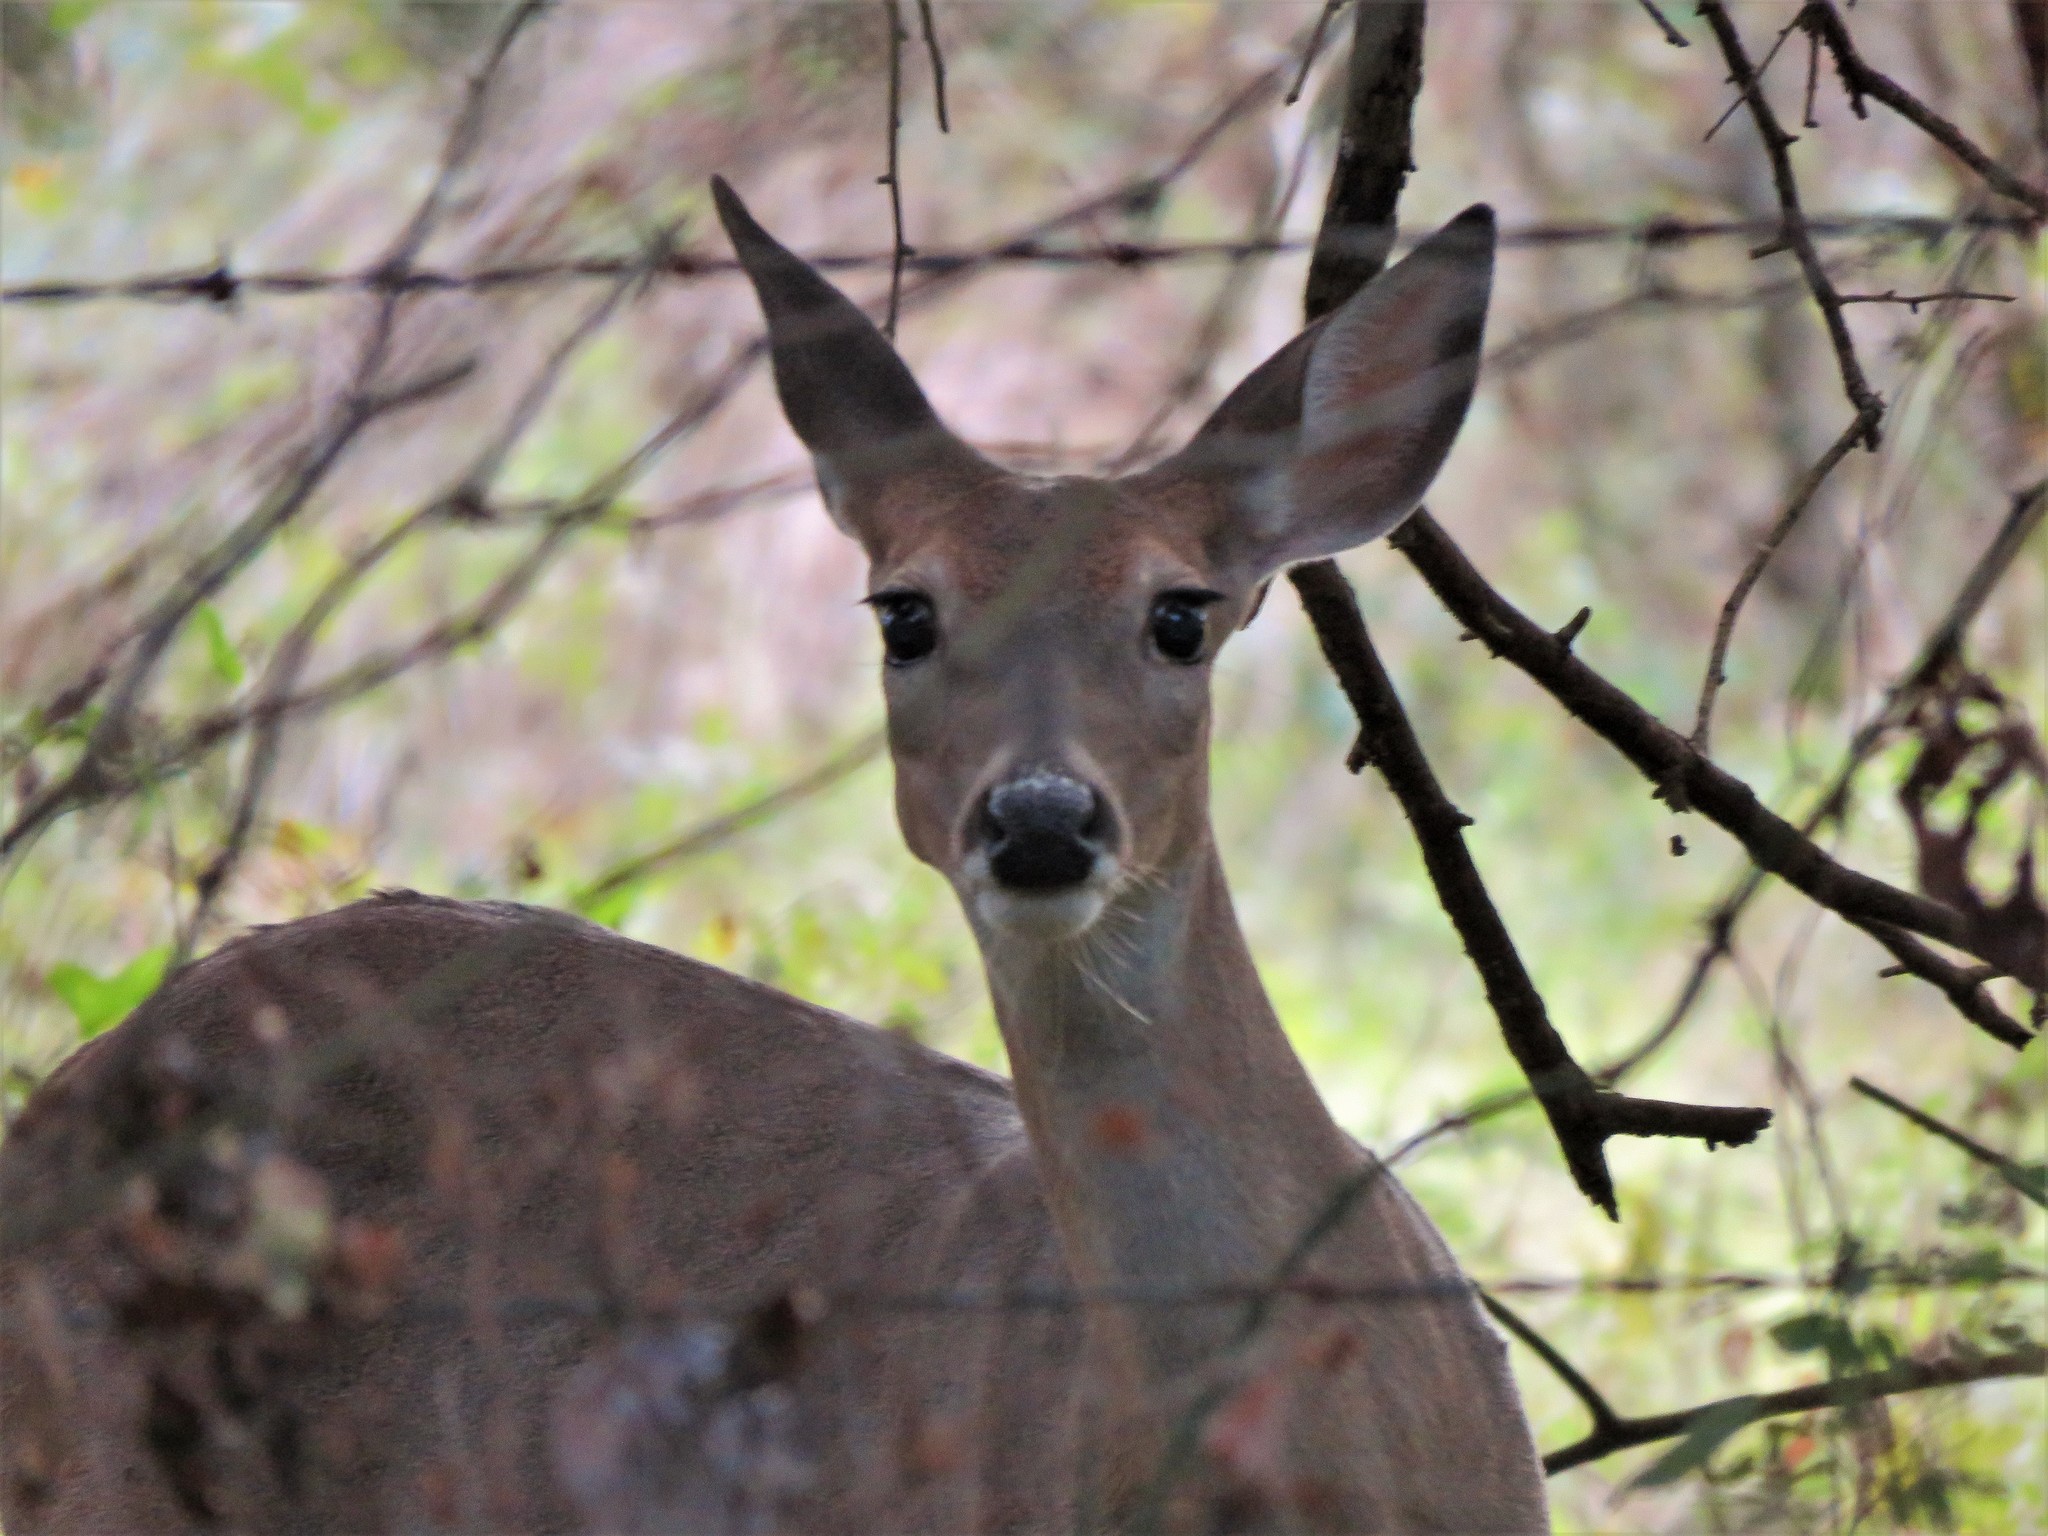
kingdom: Animalia
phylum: Chordata
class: Mammalia
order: Artiodactyla
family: Cervidae
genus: Odocoileus
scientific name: Odocoileus virginianus
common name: White-tailed deer
